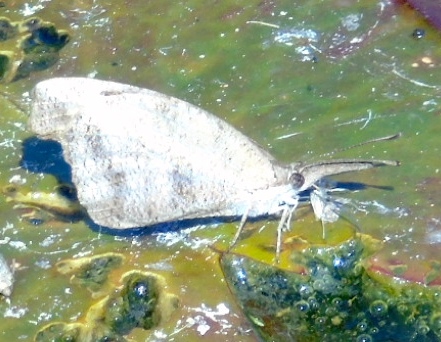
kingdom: Animalia
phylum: Arthropoda
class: Insecta
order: Lepidoptera
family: Nymphalidae
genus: Libytheana
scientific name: Libytheana carinenta
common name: American snout
